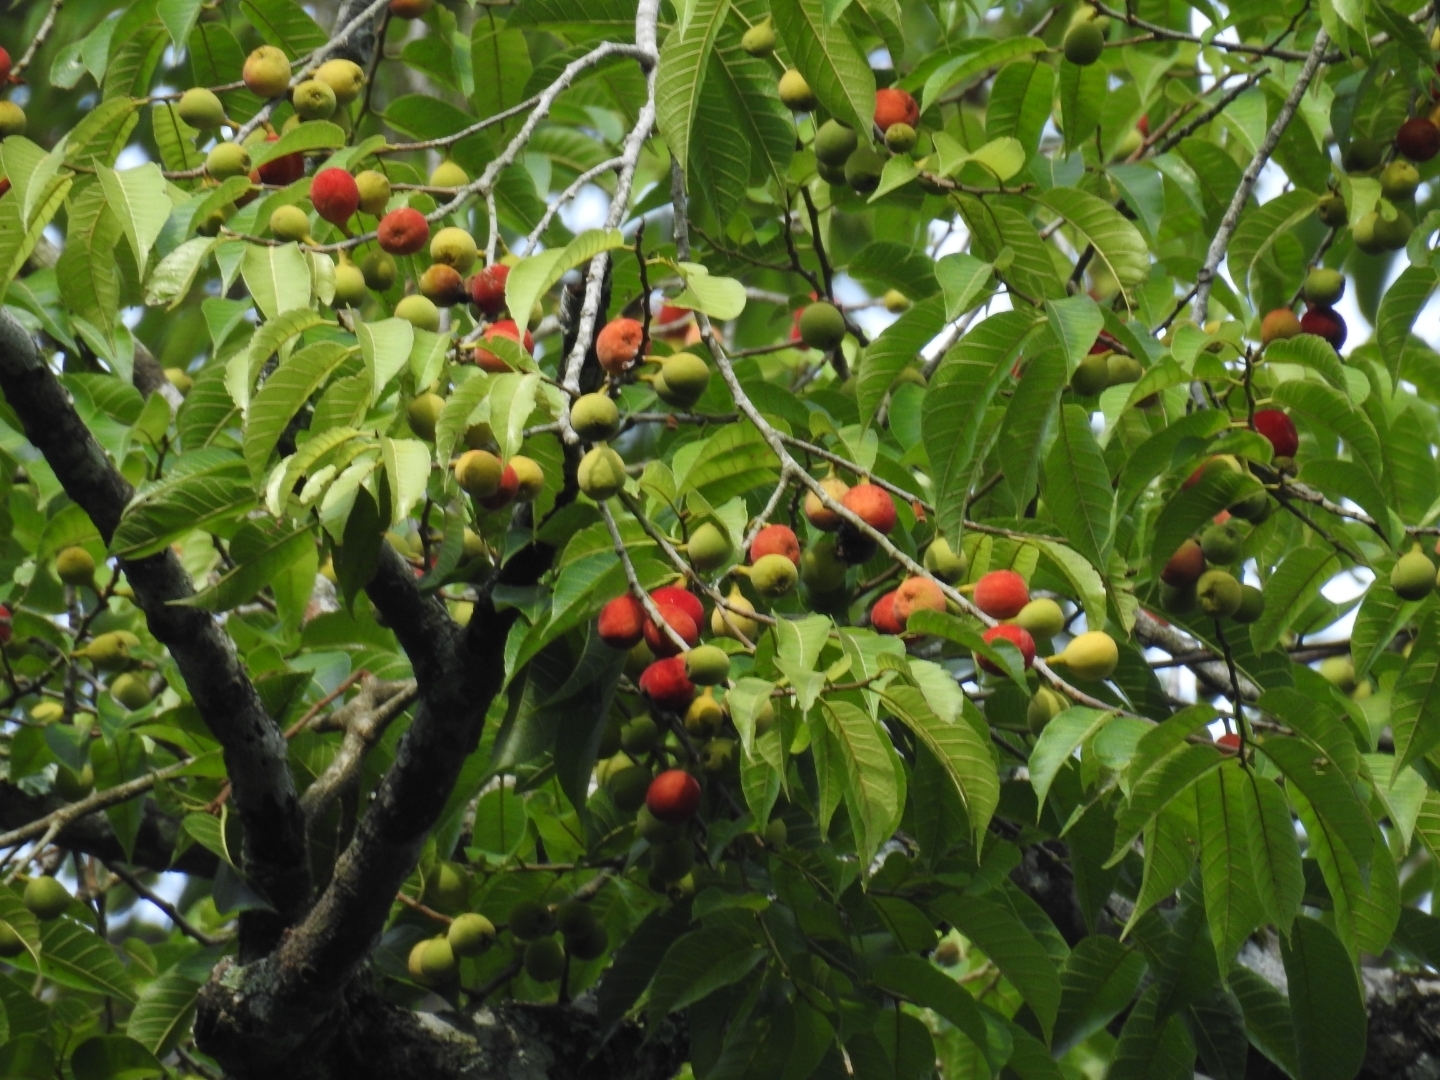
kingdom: Plantae
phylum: Tracheophyta
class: Magnoliopsida
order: Rosales
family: Moraceae
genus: Antiaris
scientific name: Antiaris toxicaria
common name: Sackingtree
